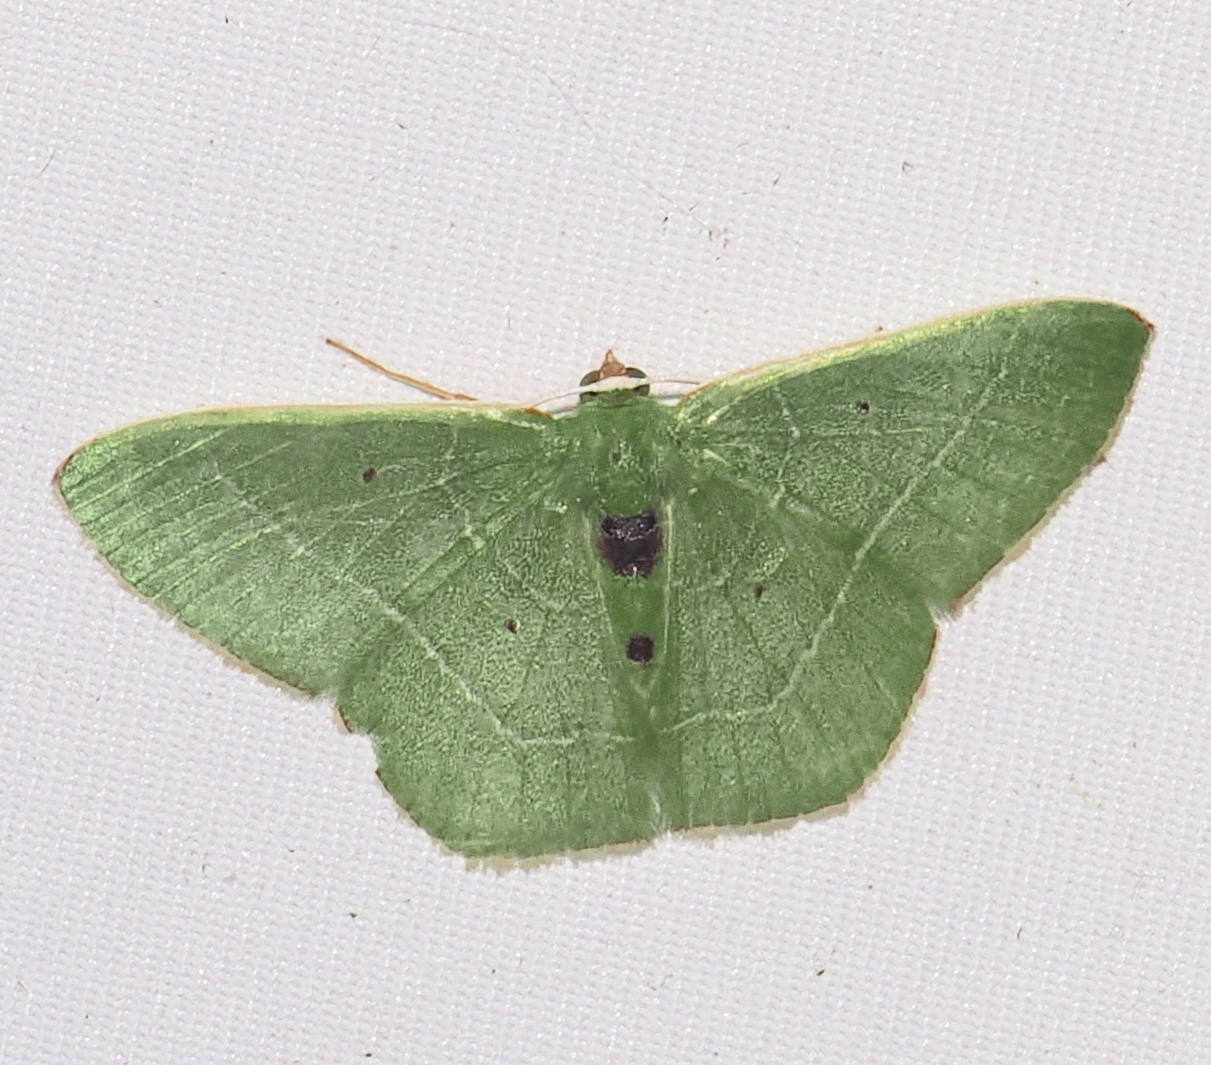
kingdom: Animalia
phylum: Arthropoda
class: Insecta
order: Lepidoptera
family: Geometridae
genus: Nemoria
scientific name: Nemoria rectilinea
